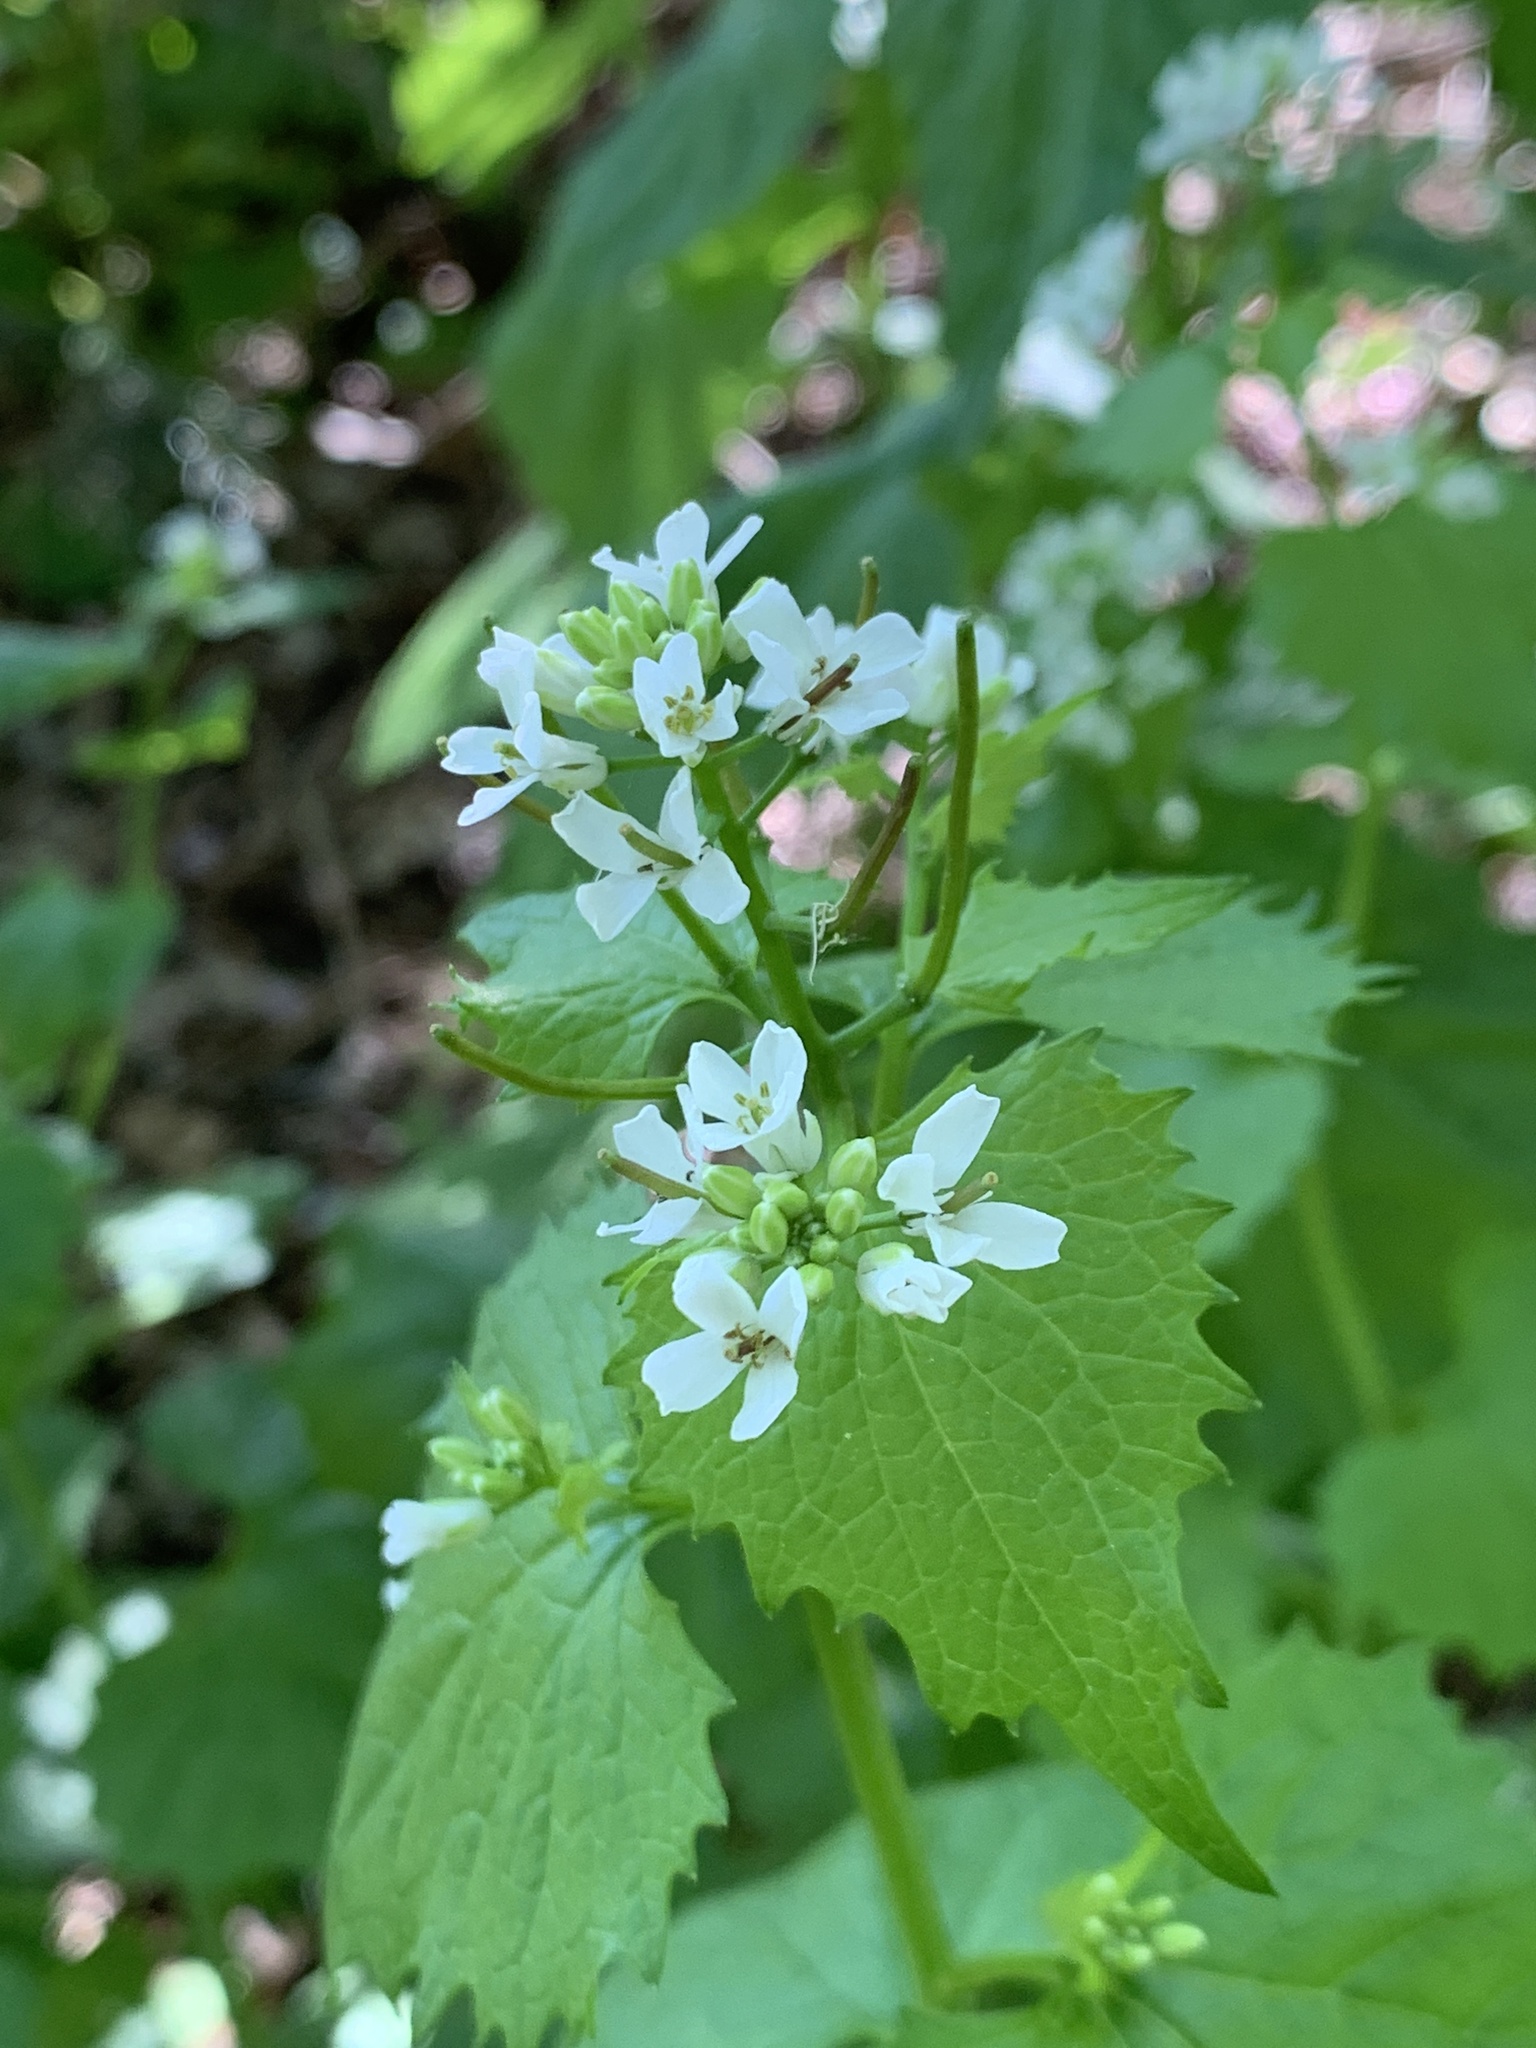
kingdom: Plantae
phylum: Tracheophyta
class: Magnoliopsida
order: Brassicales
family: Brassicaceae
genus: Alliaria
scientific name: Alliaria petiolata
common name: Garlic mustard
